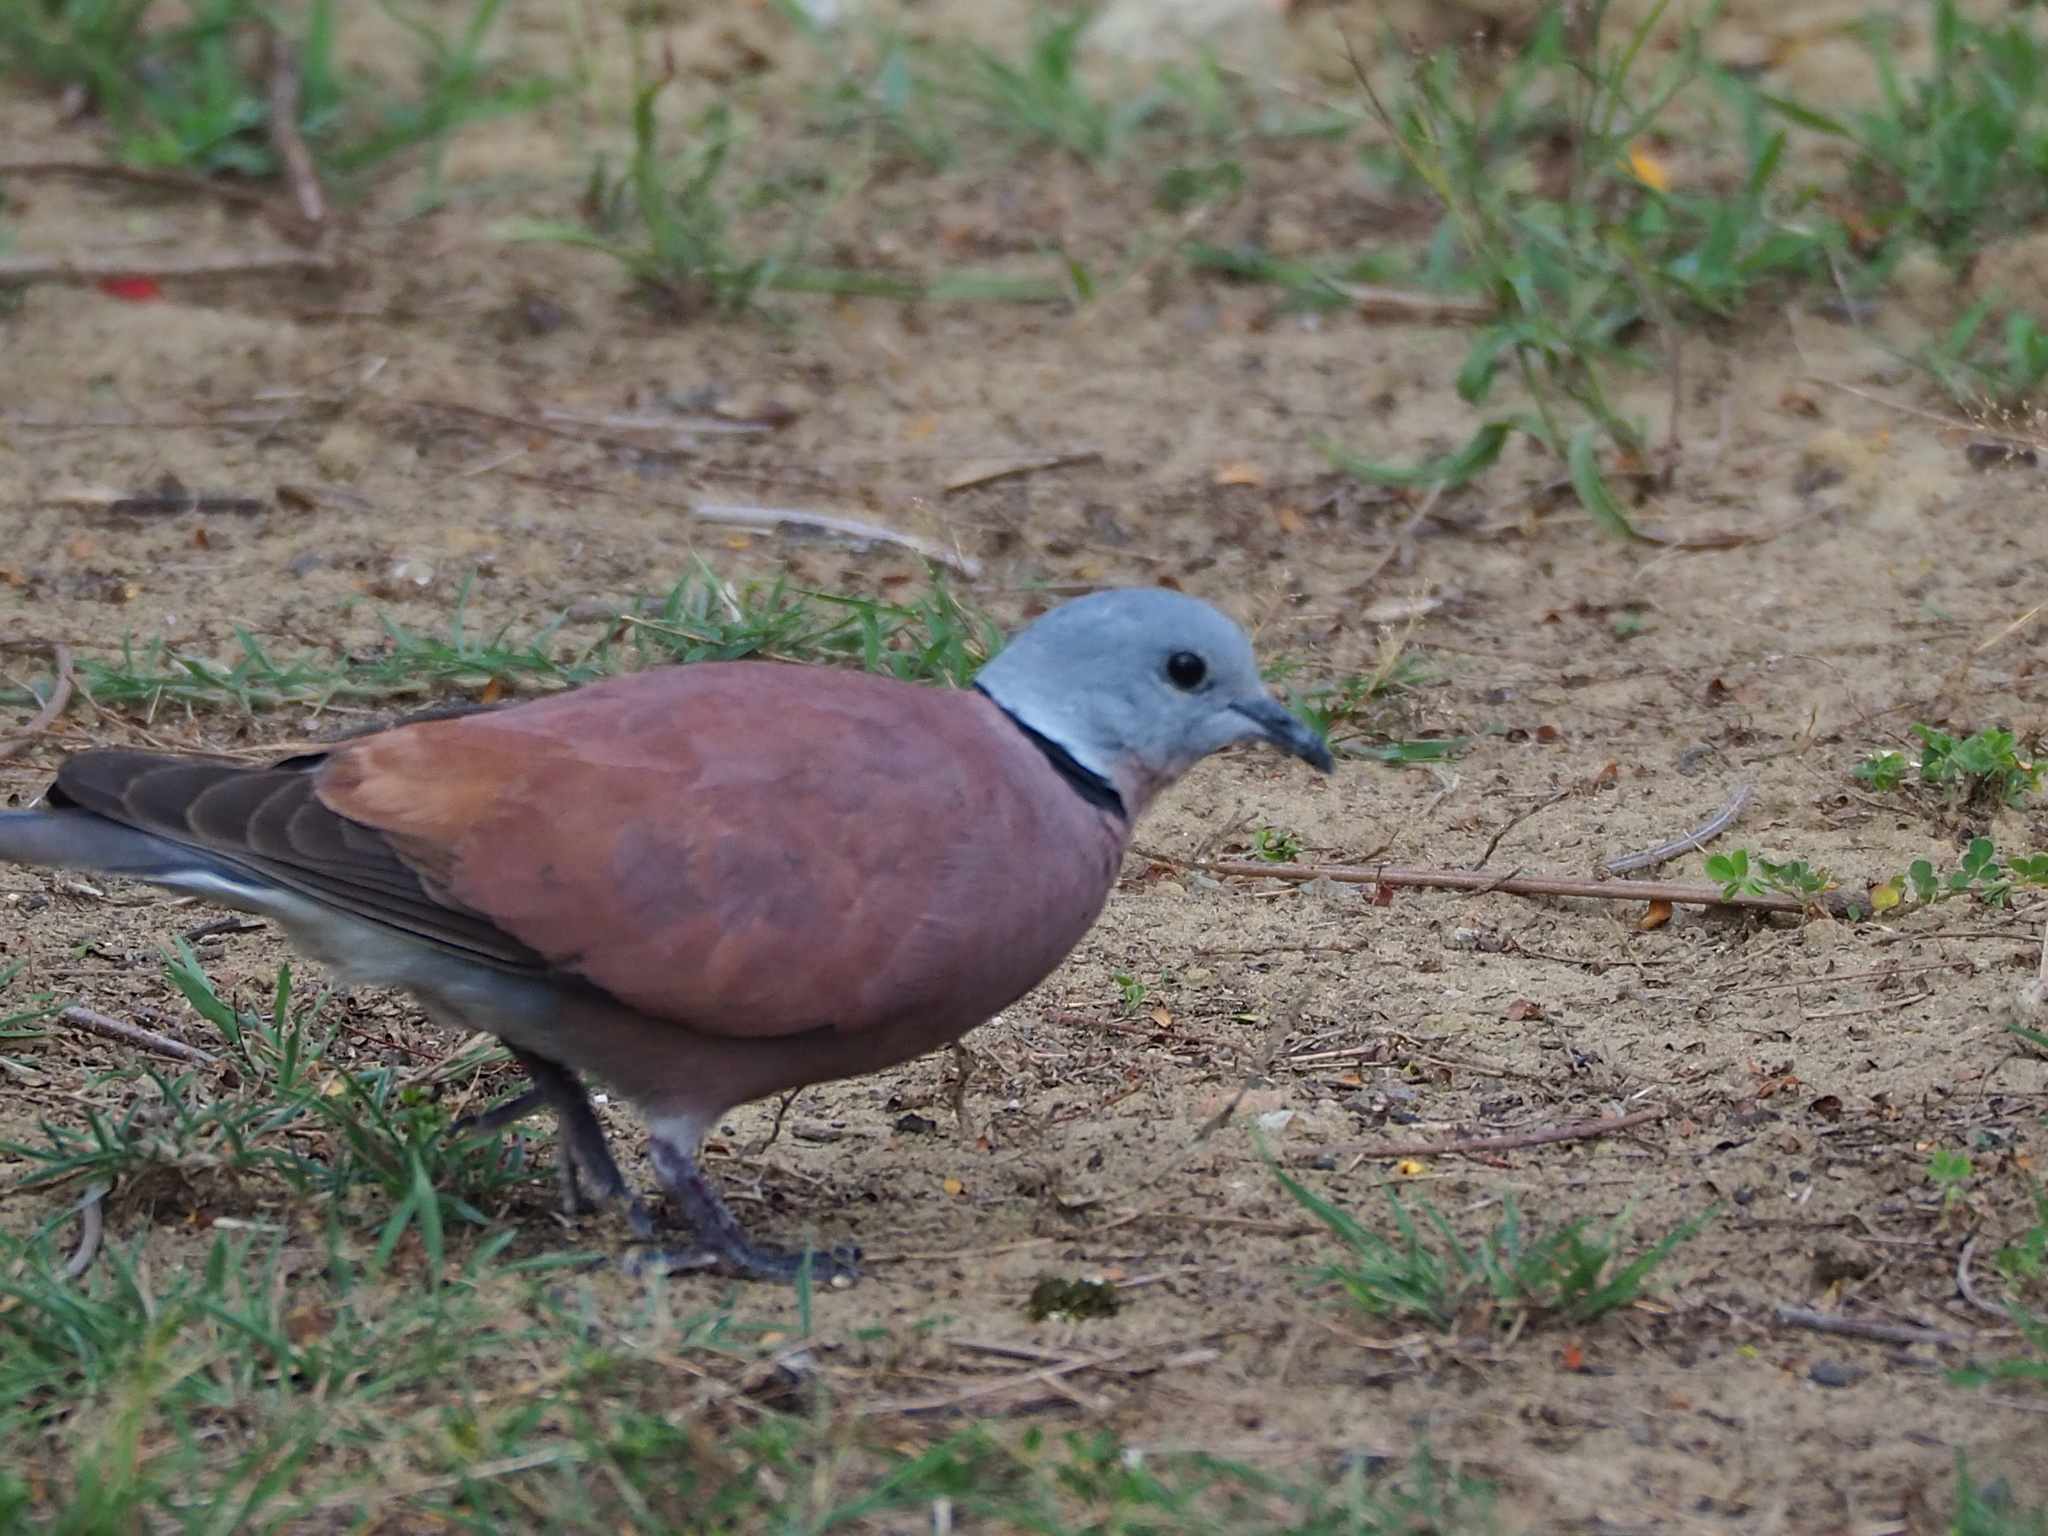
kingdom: Animalia
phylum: Chordata
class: Aves
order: Columbiformes
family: Columbidae
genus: Streptopelia
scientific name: Streptopelia tranquebarica
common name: Red turtle dove
